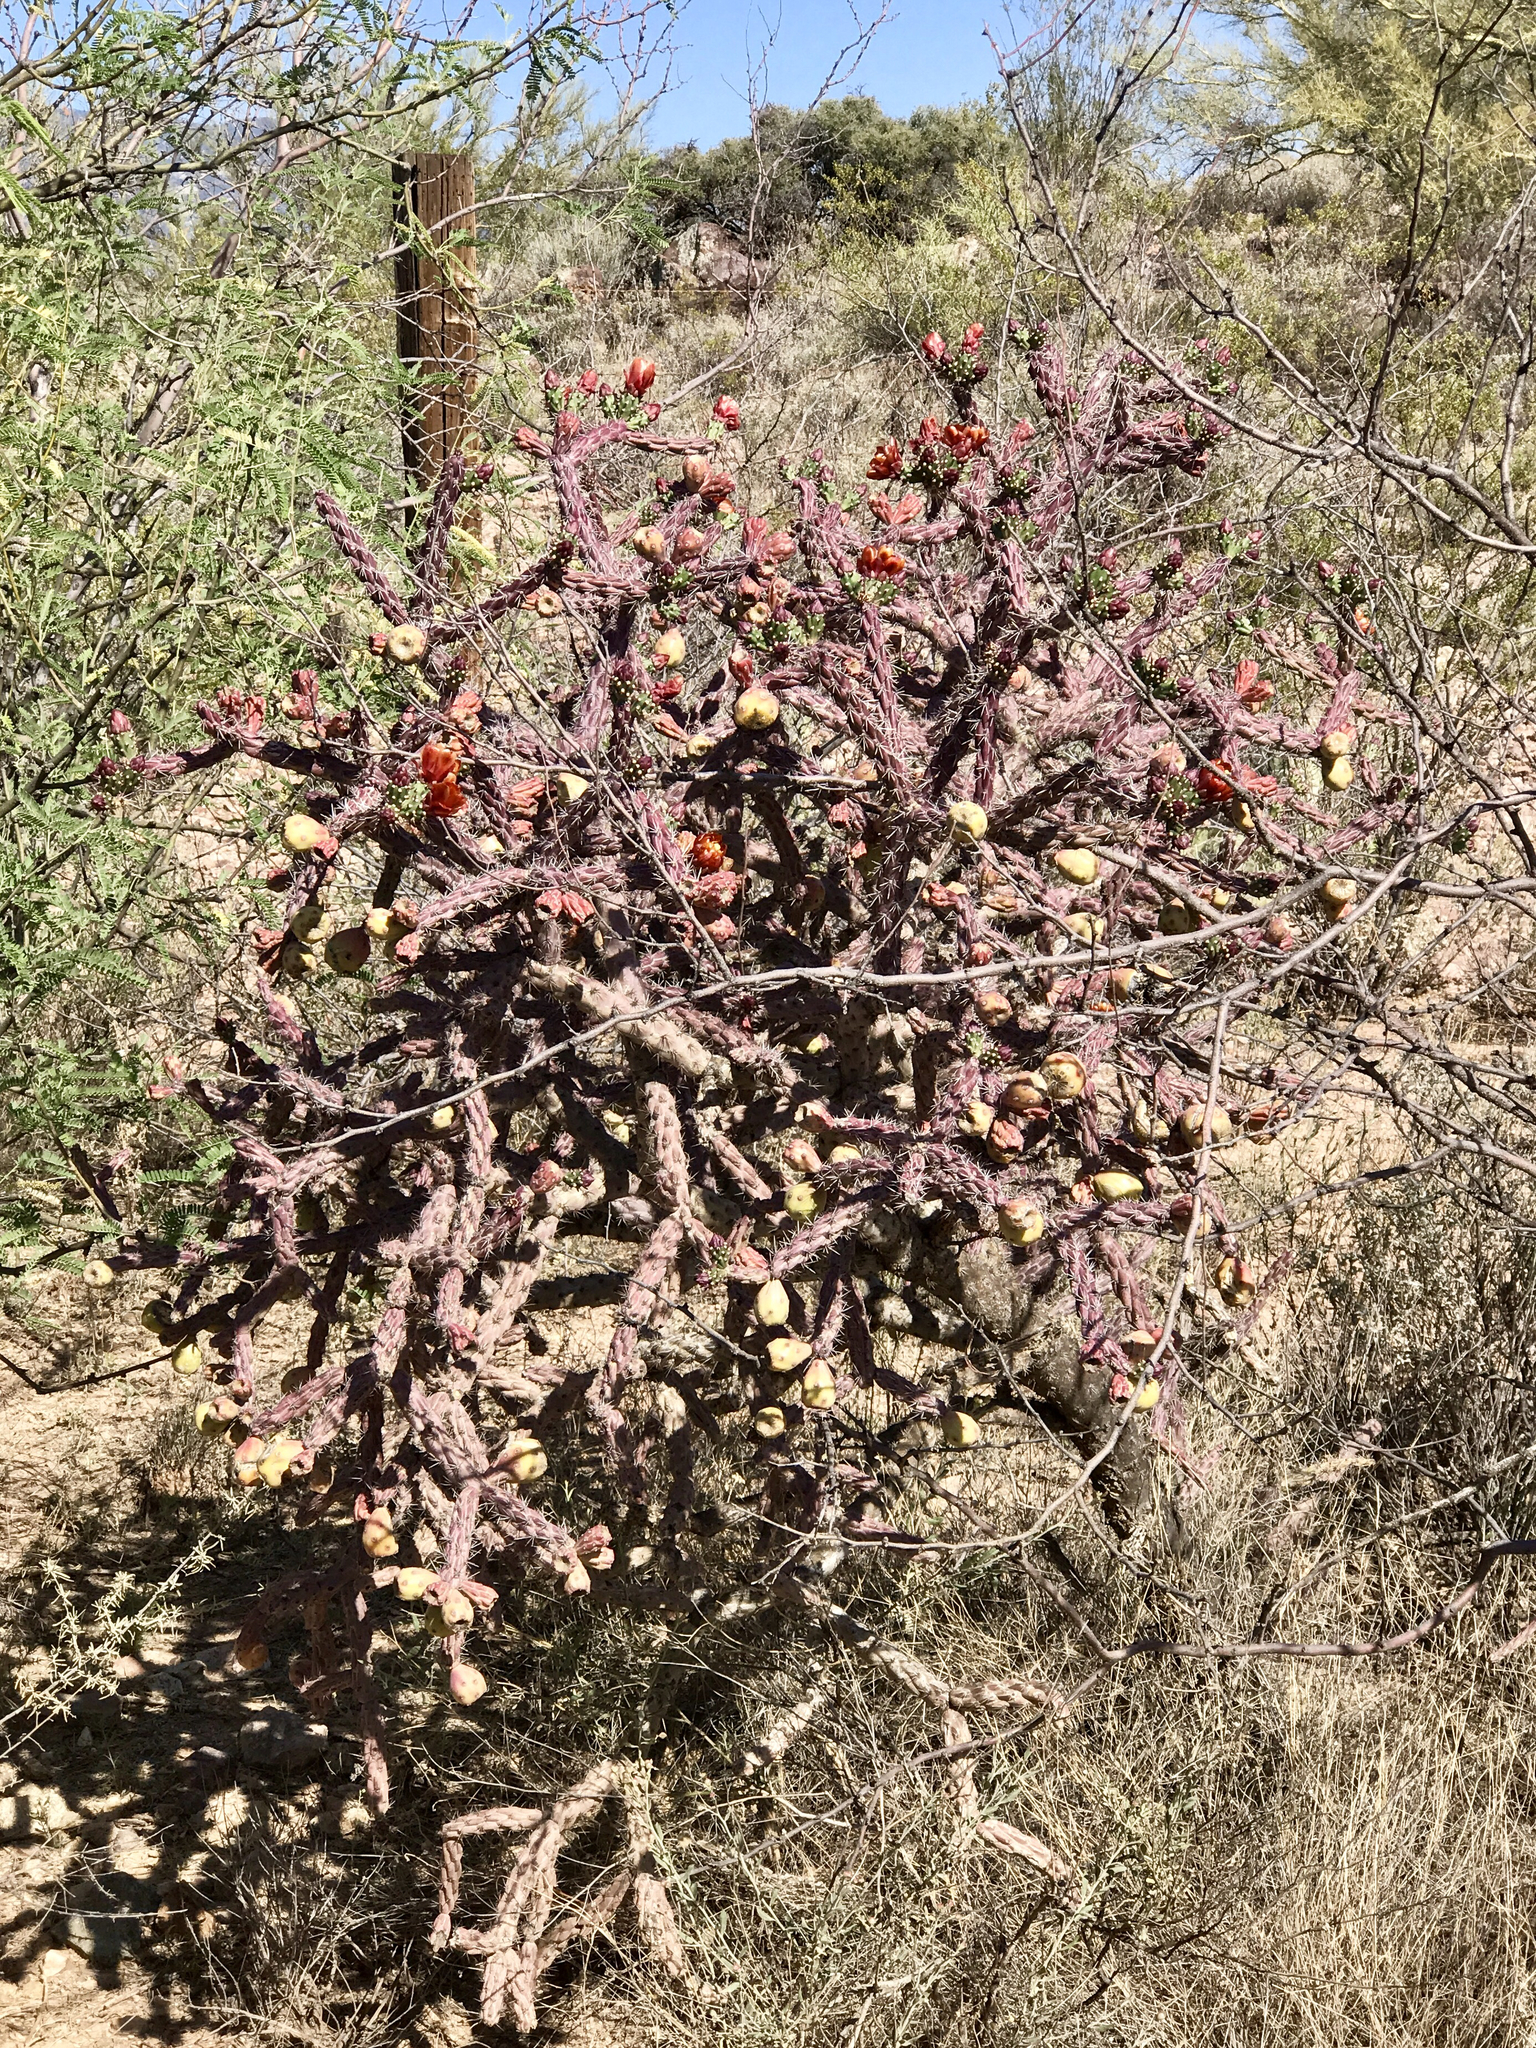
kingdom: Plantae
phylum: Tracheophyta
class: Magnoliopsida
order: Caryophyllales
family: Cactaceae
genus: Cylindropuntia
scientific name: Cylindropuntia thurberi
